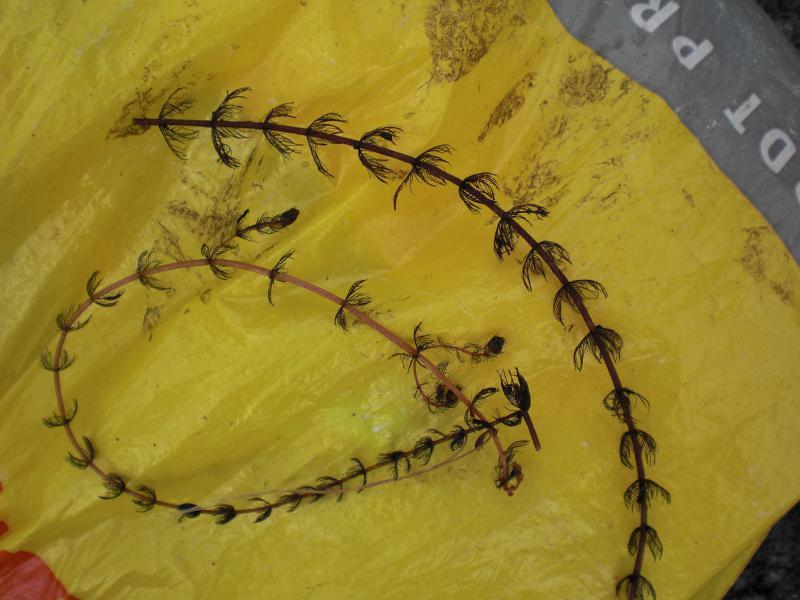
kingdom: Plantae
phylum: Tracheophyta
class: Magnoliopsida
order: Saxifragales
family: Haloragaceae
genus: Myriophyllum
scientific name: Myriophyllum alterniflorum
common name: Alternate water-milfoil
